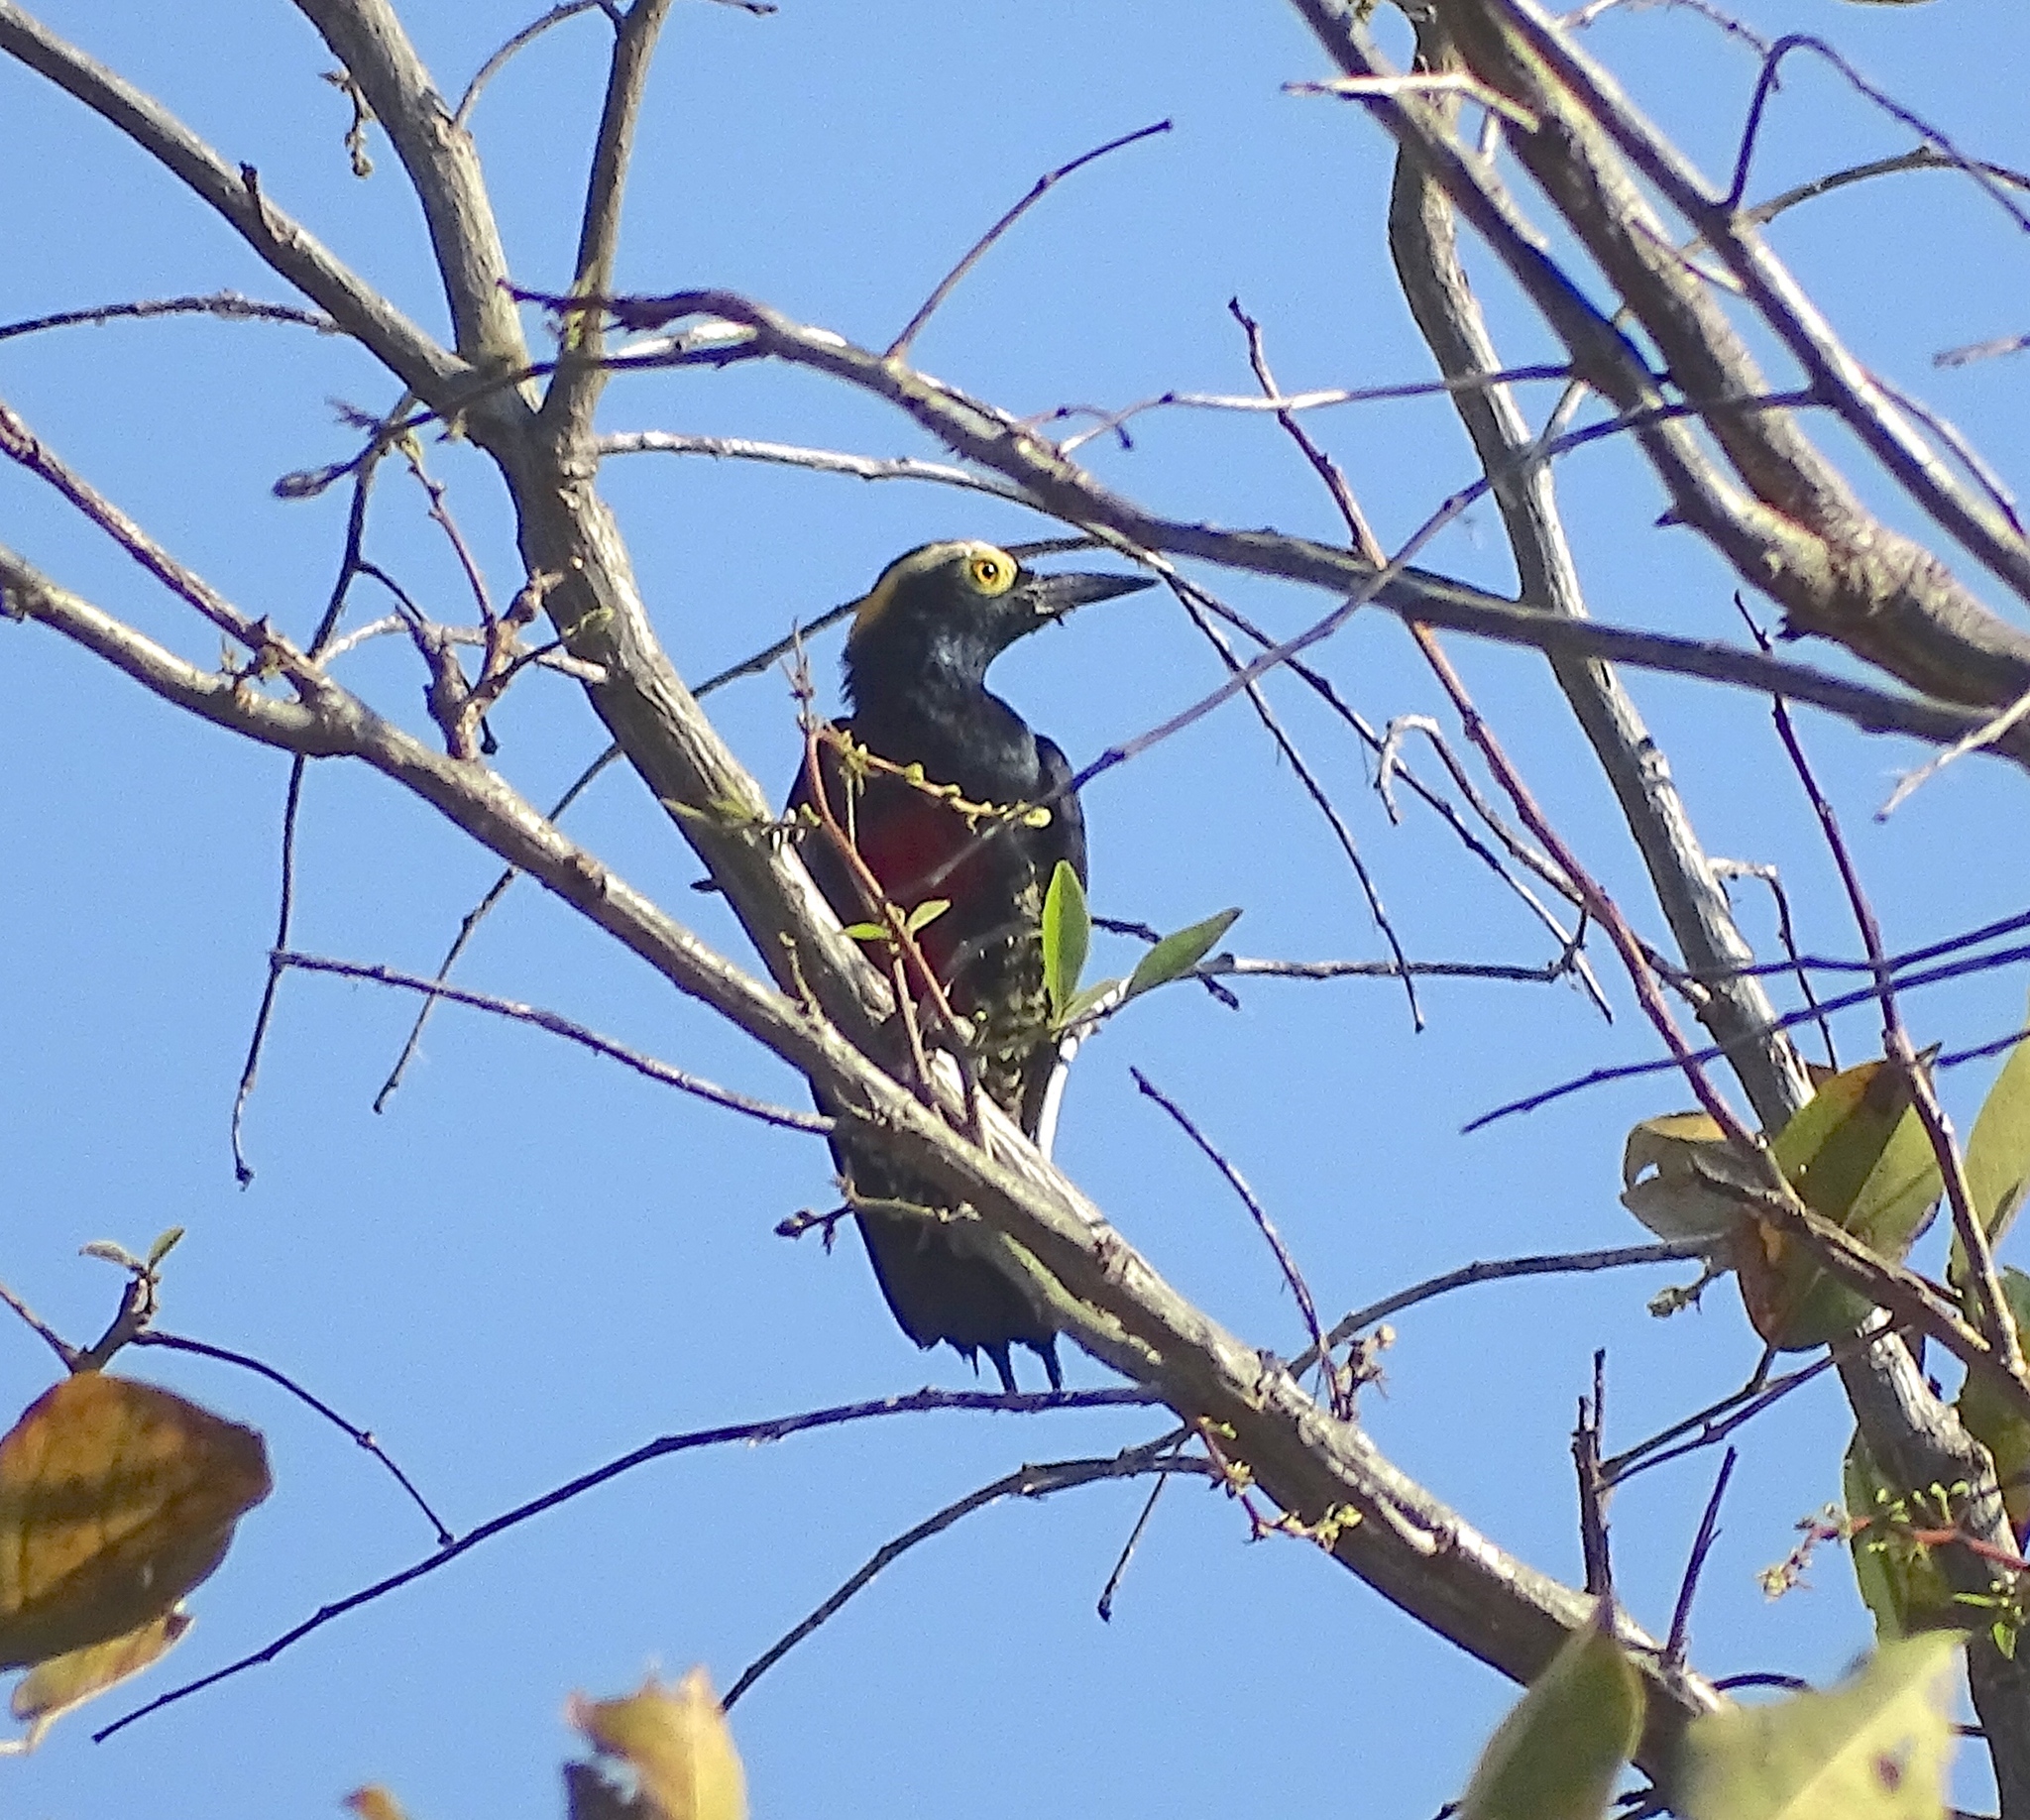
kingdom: Animalia
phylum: Chordata
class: Aves
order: Piciformes
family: Picidae
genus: Melanerpes
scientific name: Melanerpes cruentatus
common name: Yellow-tufted woodpecker
